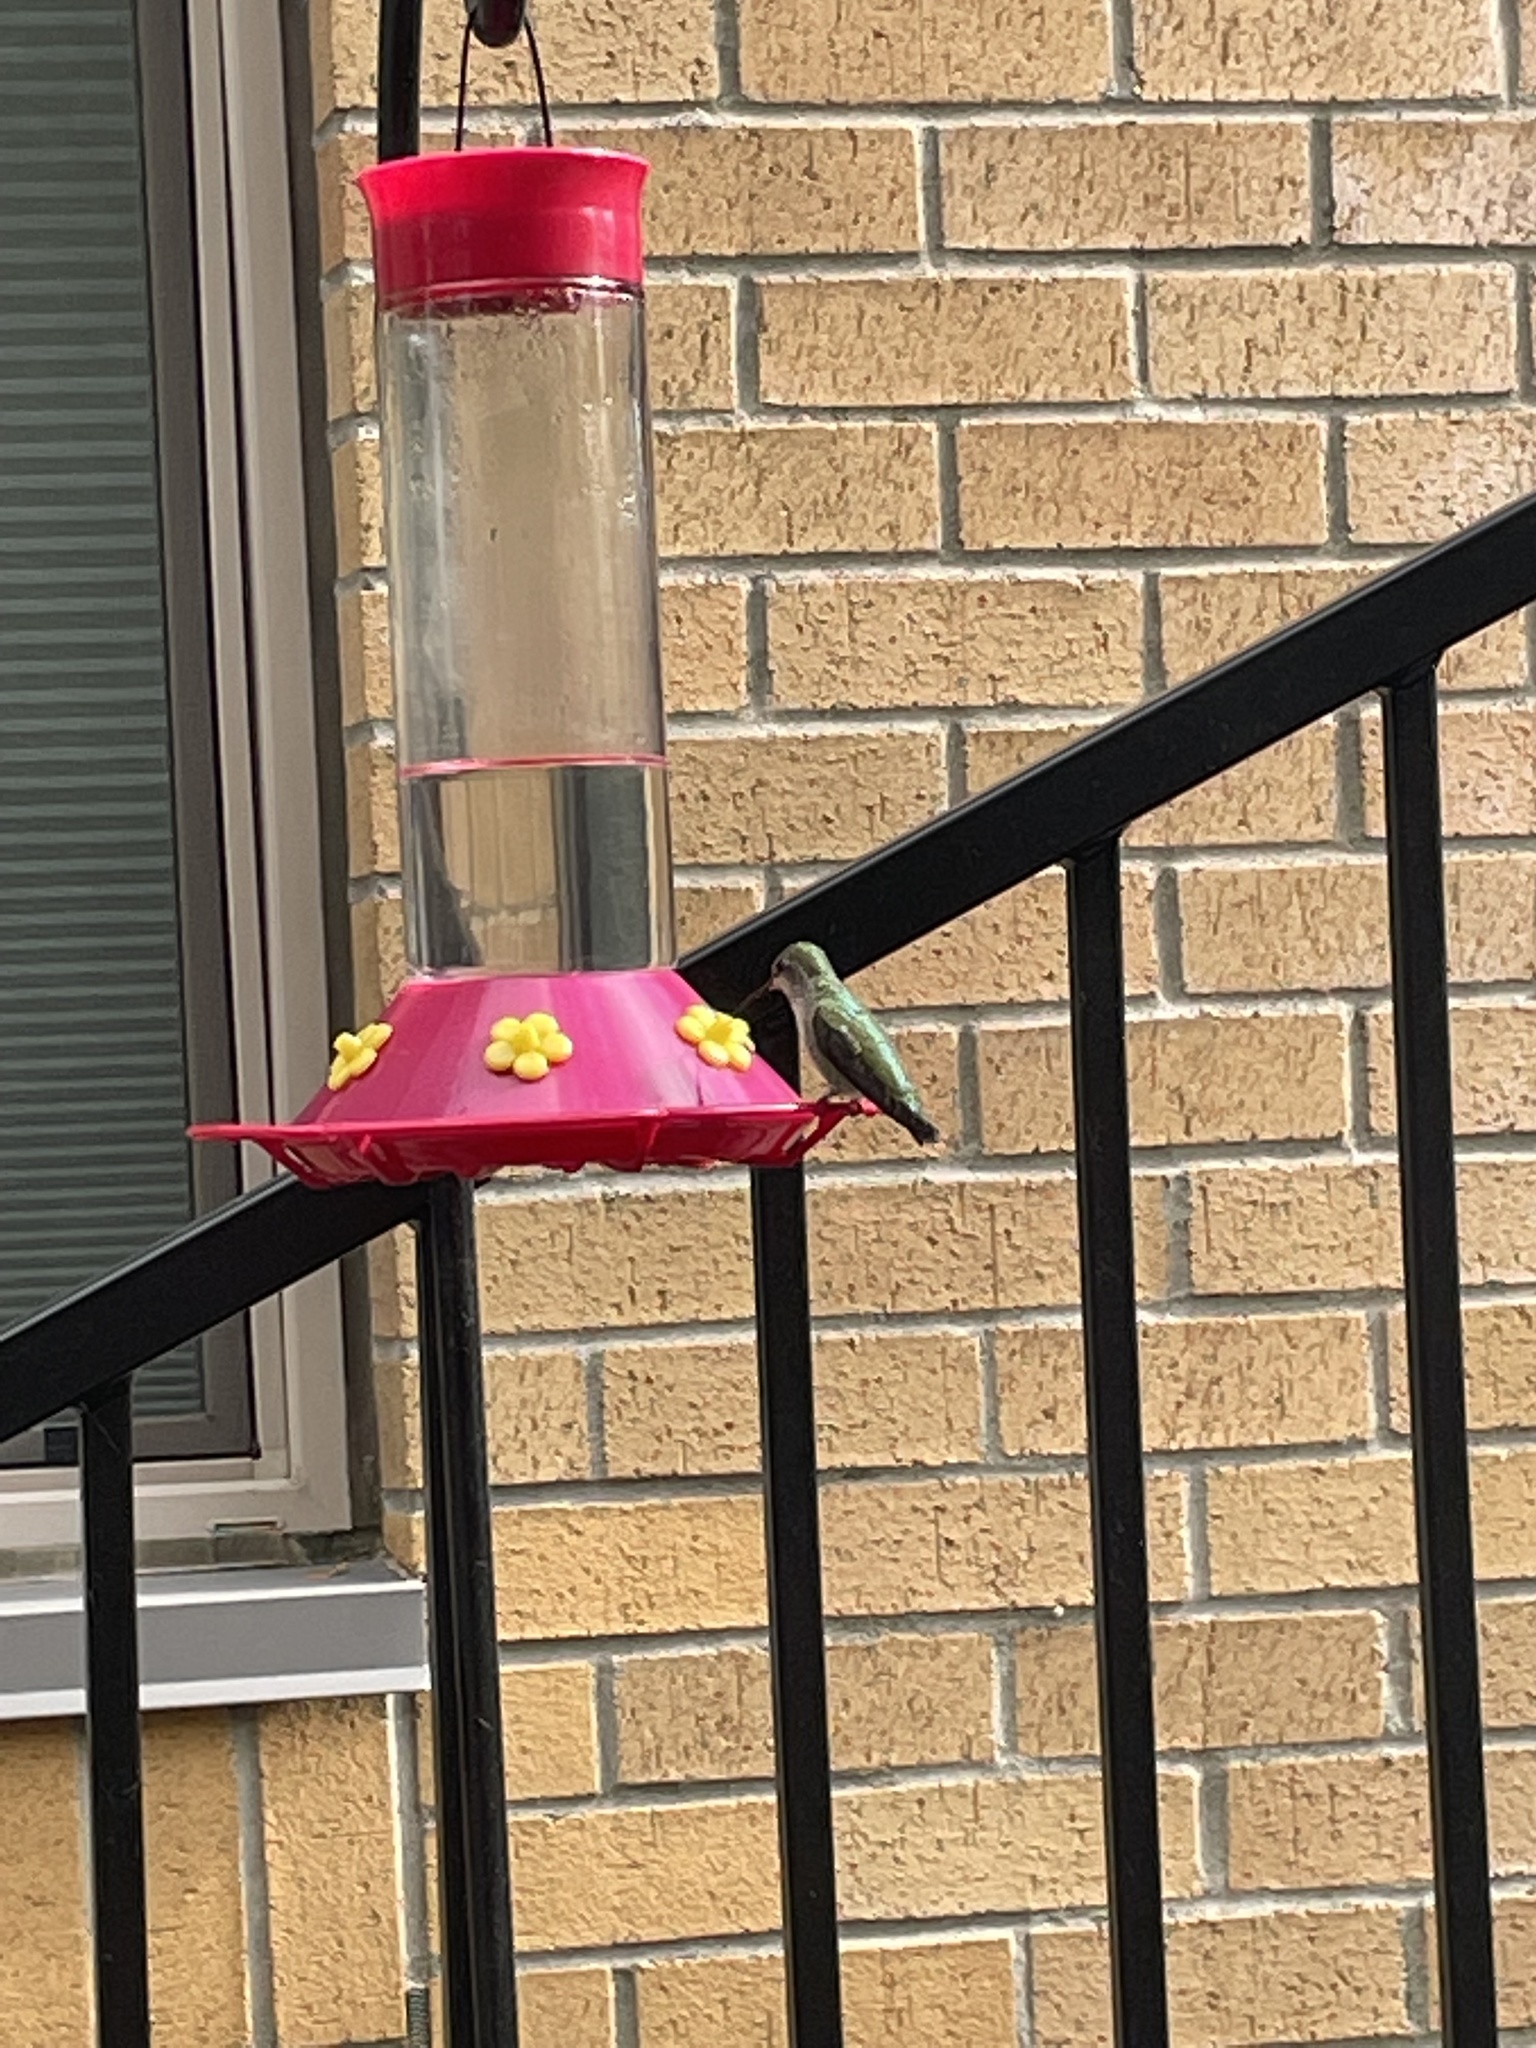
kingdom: Animalia
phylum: Chordata
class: Aves
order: Apodiformes
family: Trochilidae
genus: Calypte
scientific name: Calypte anna
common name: Anna's hummingbird
